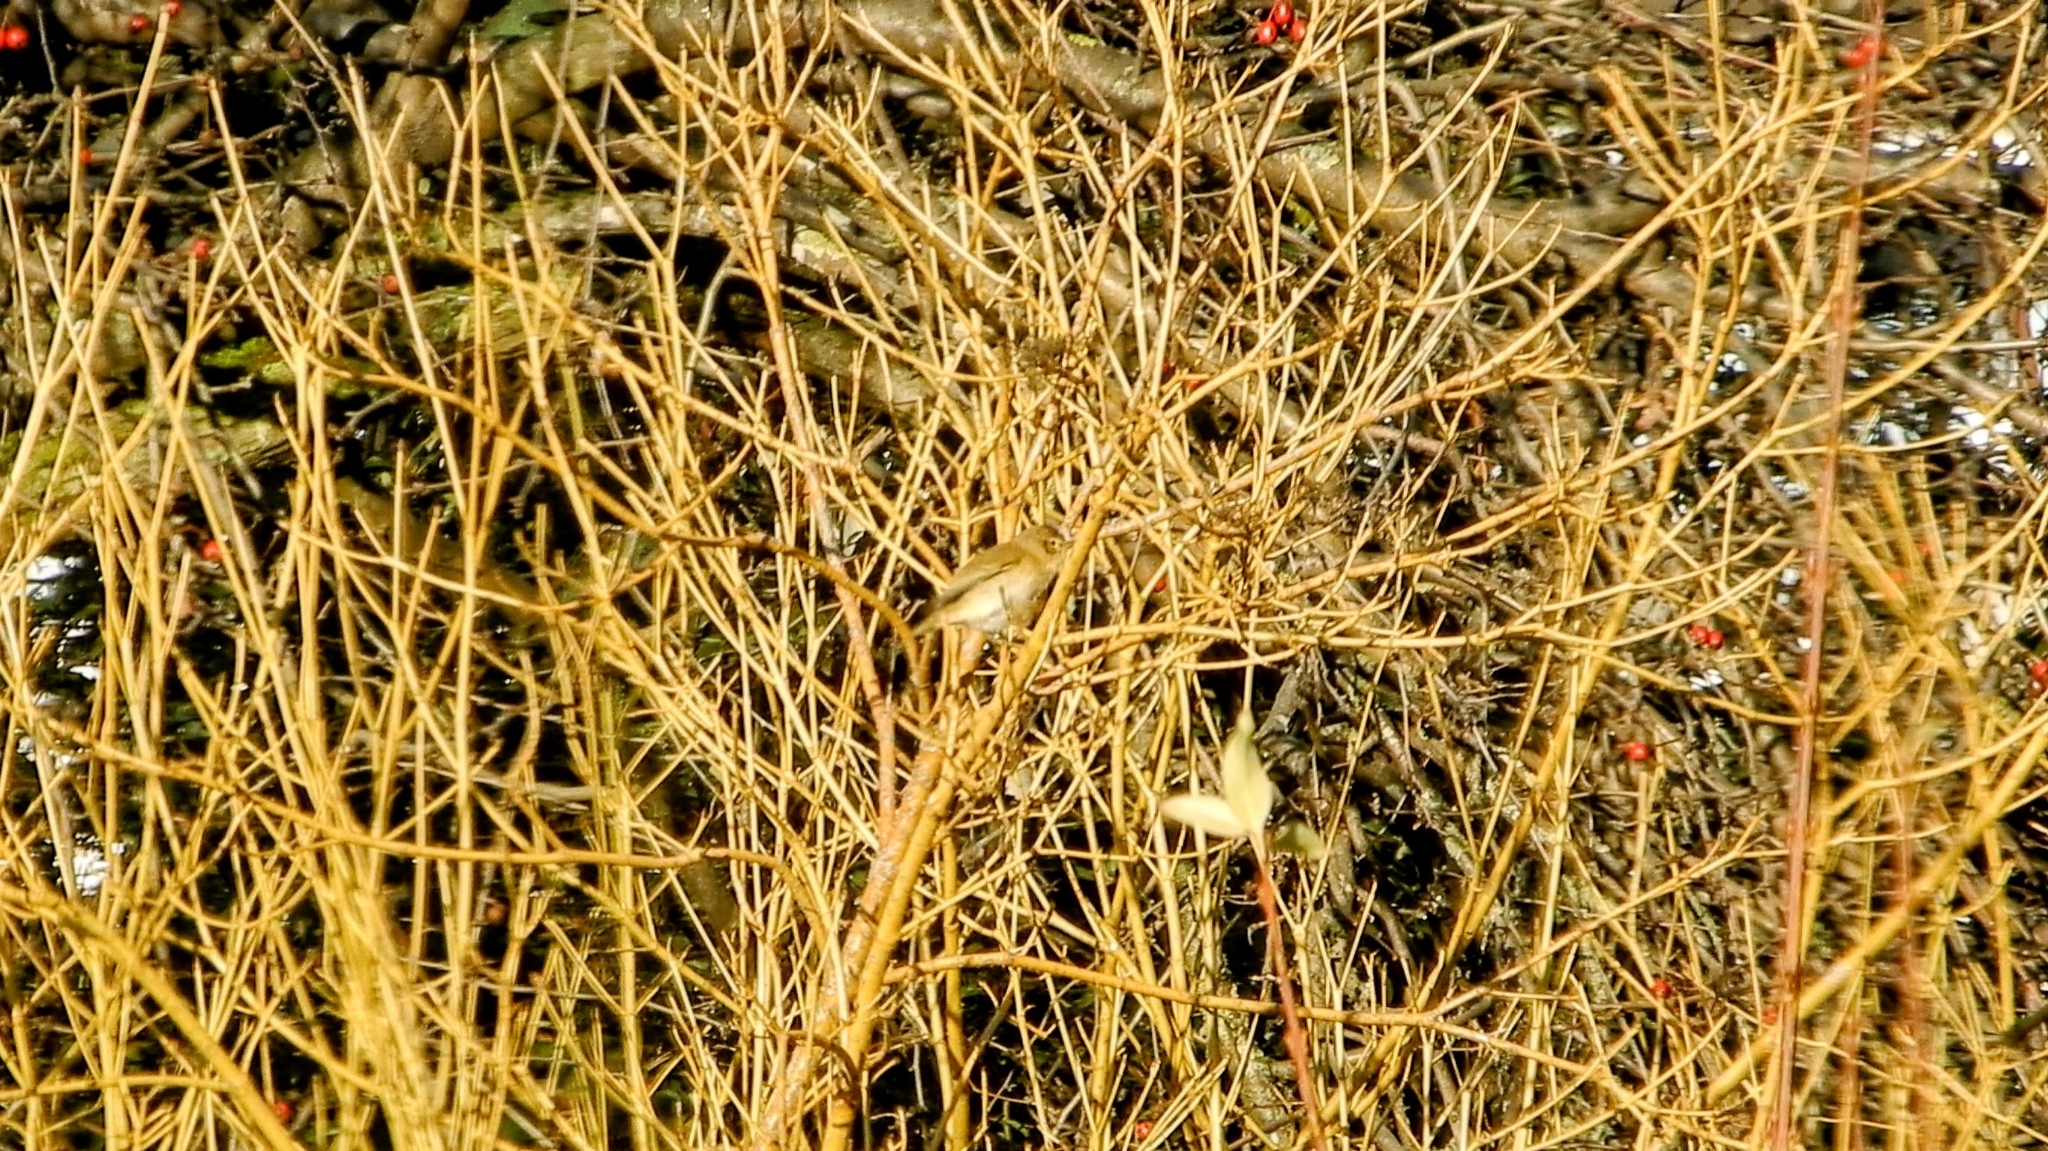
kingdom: Animalia
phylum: Chordata
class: Aves
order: Passeriformes
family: Phylloscopidae
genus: Phylloscopus
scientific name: Phylloscopus collybita
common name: Common chiffchaff
